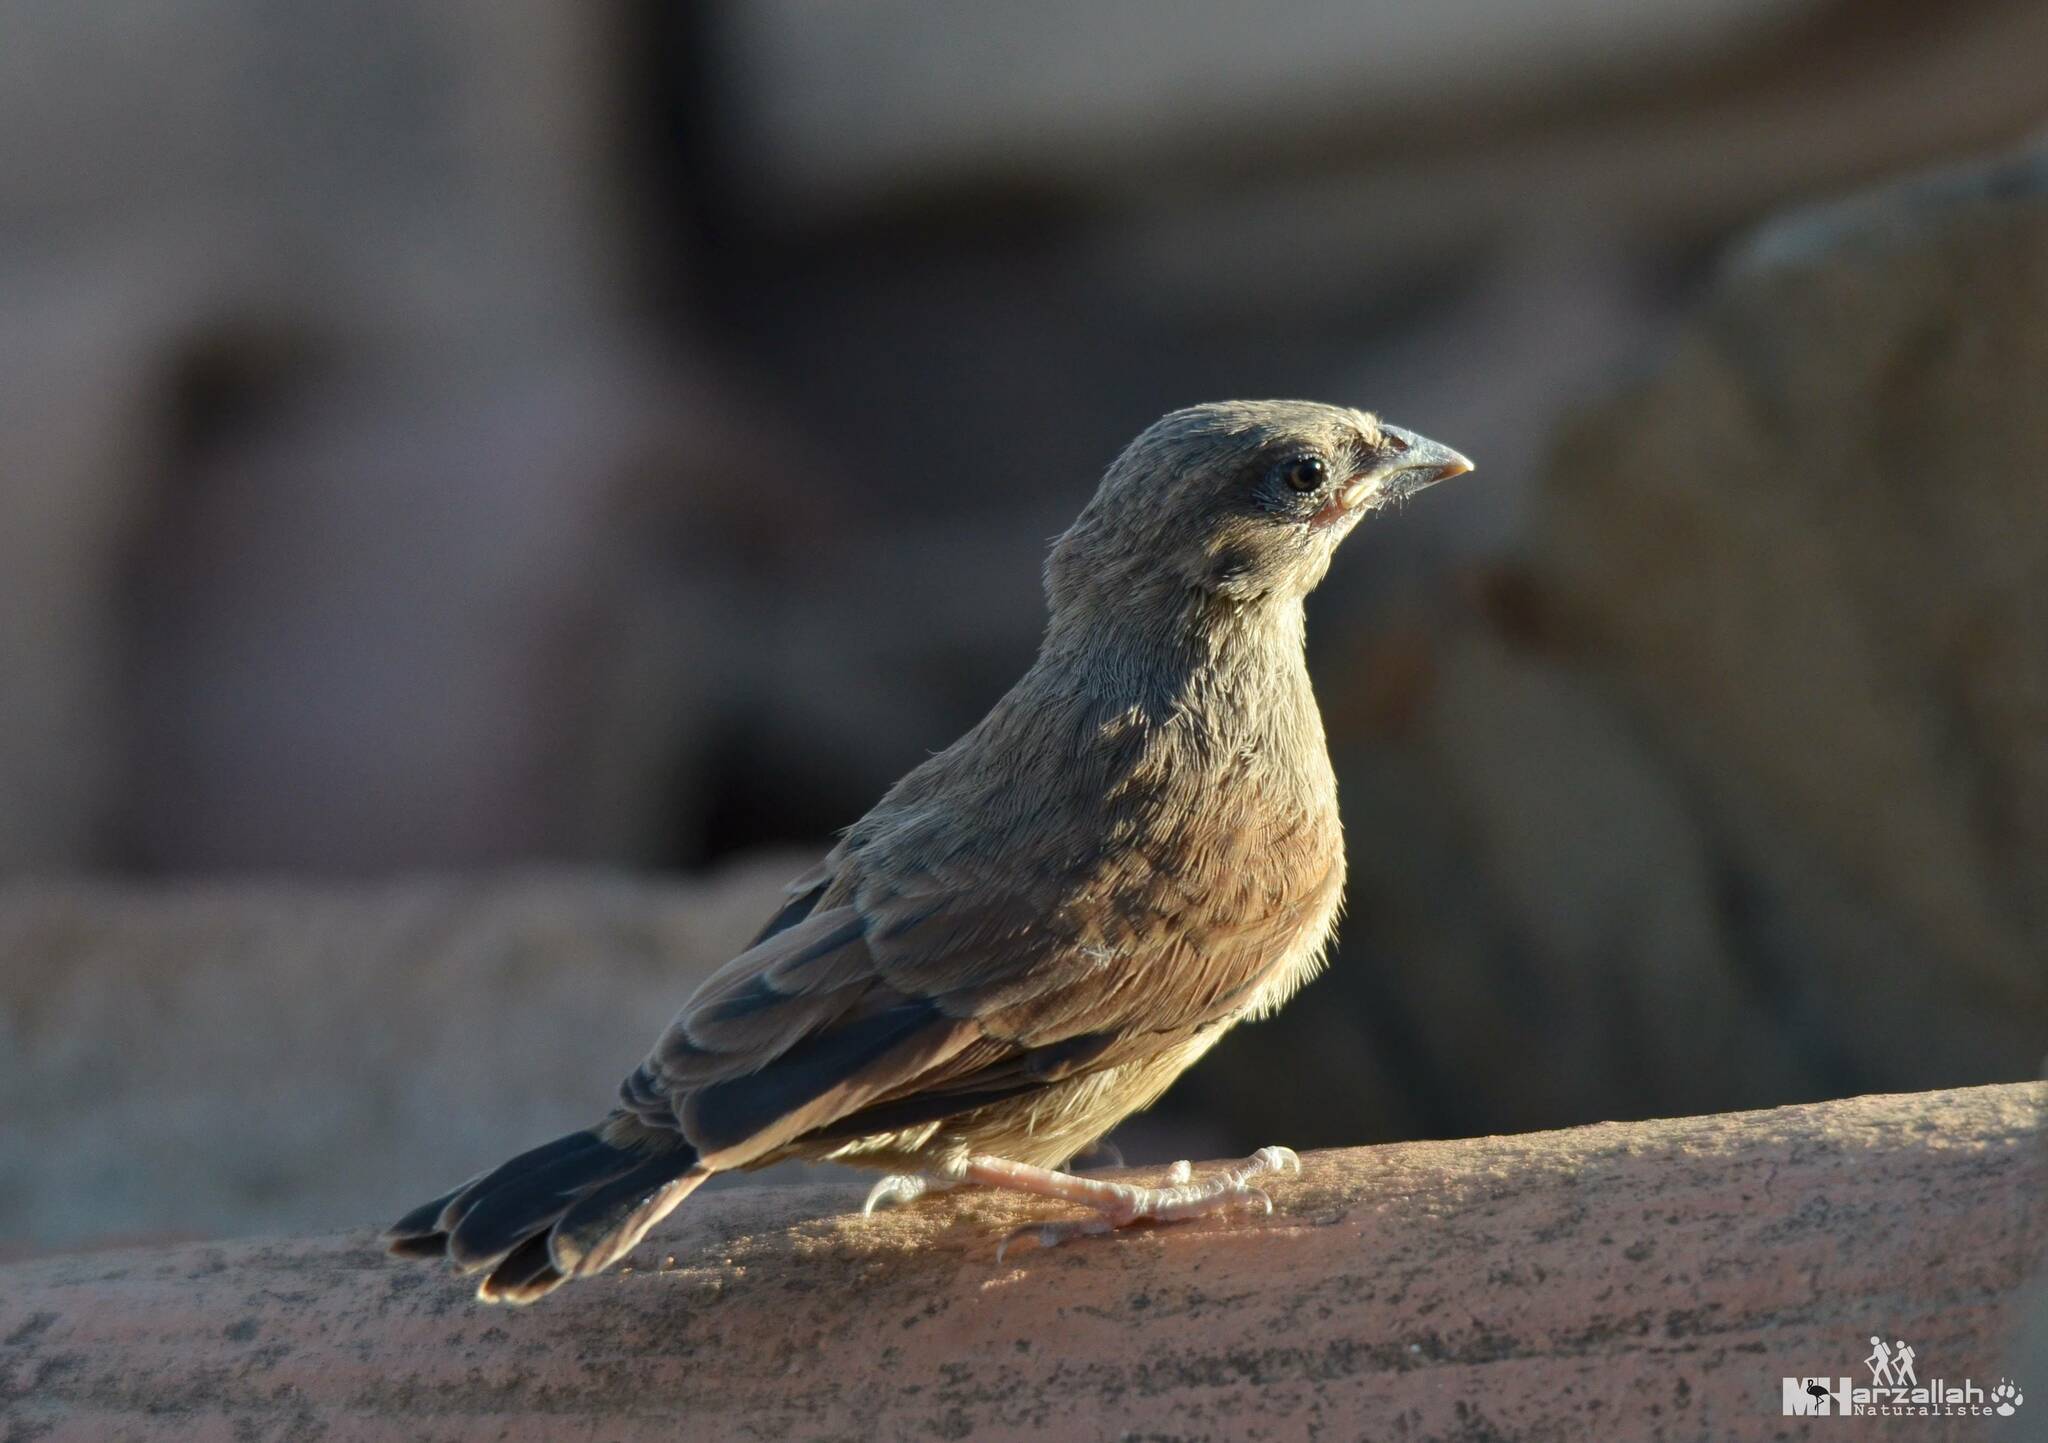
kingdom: Animalia
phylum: Chordata
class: Aves
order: Passeriformes
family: Emberizidae
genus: Emberiza
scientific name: Emberiza sahari
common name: House bunting
